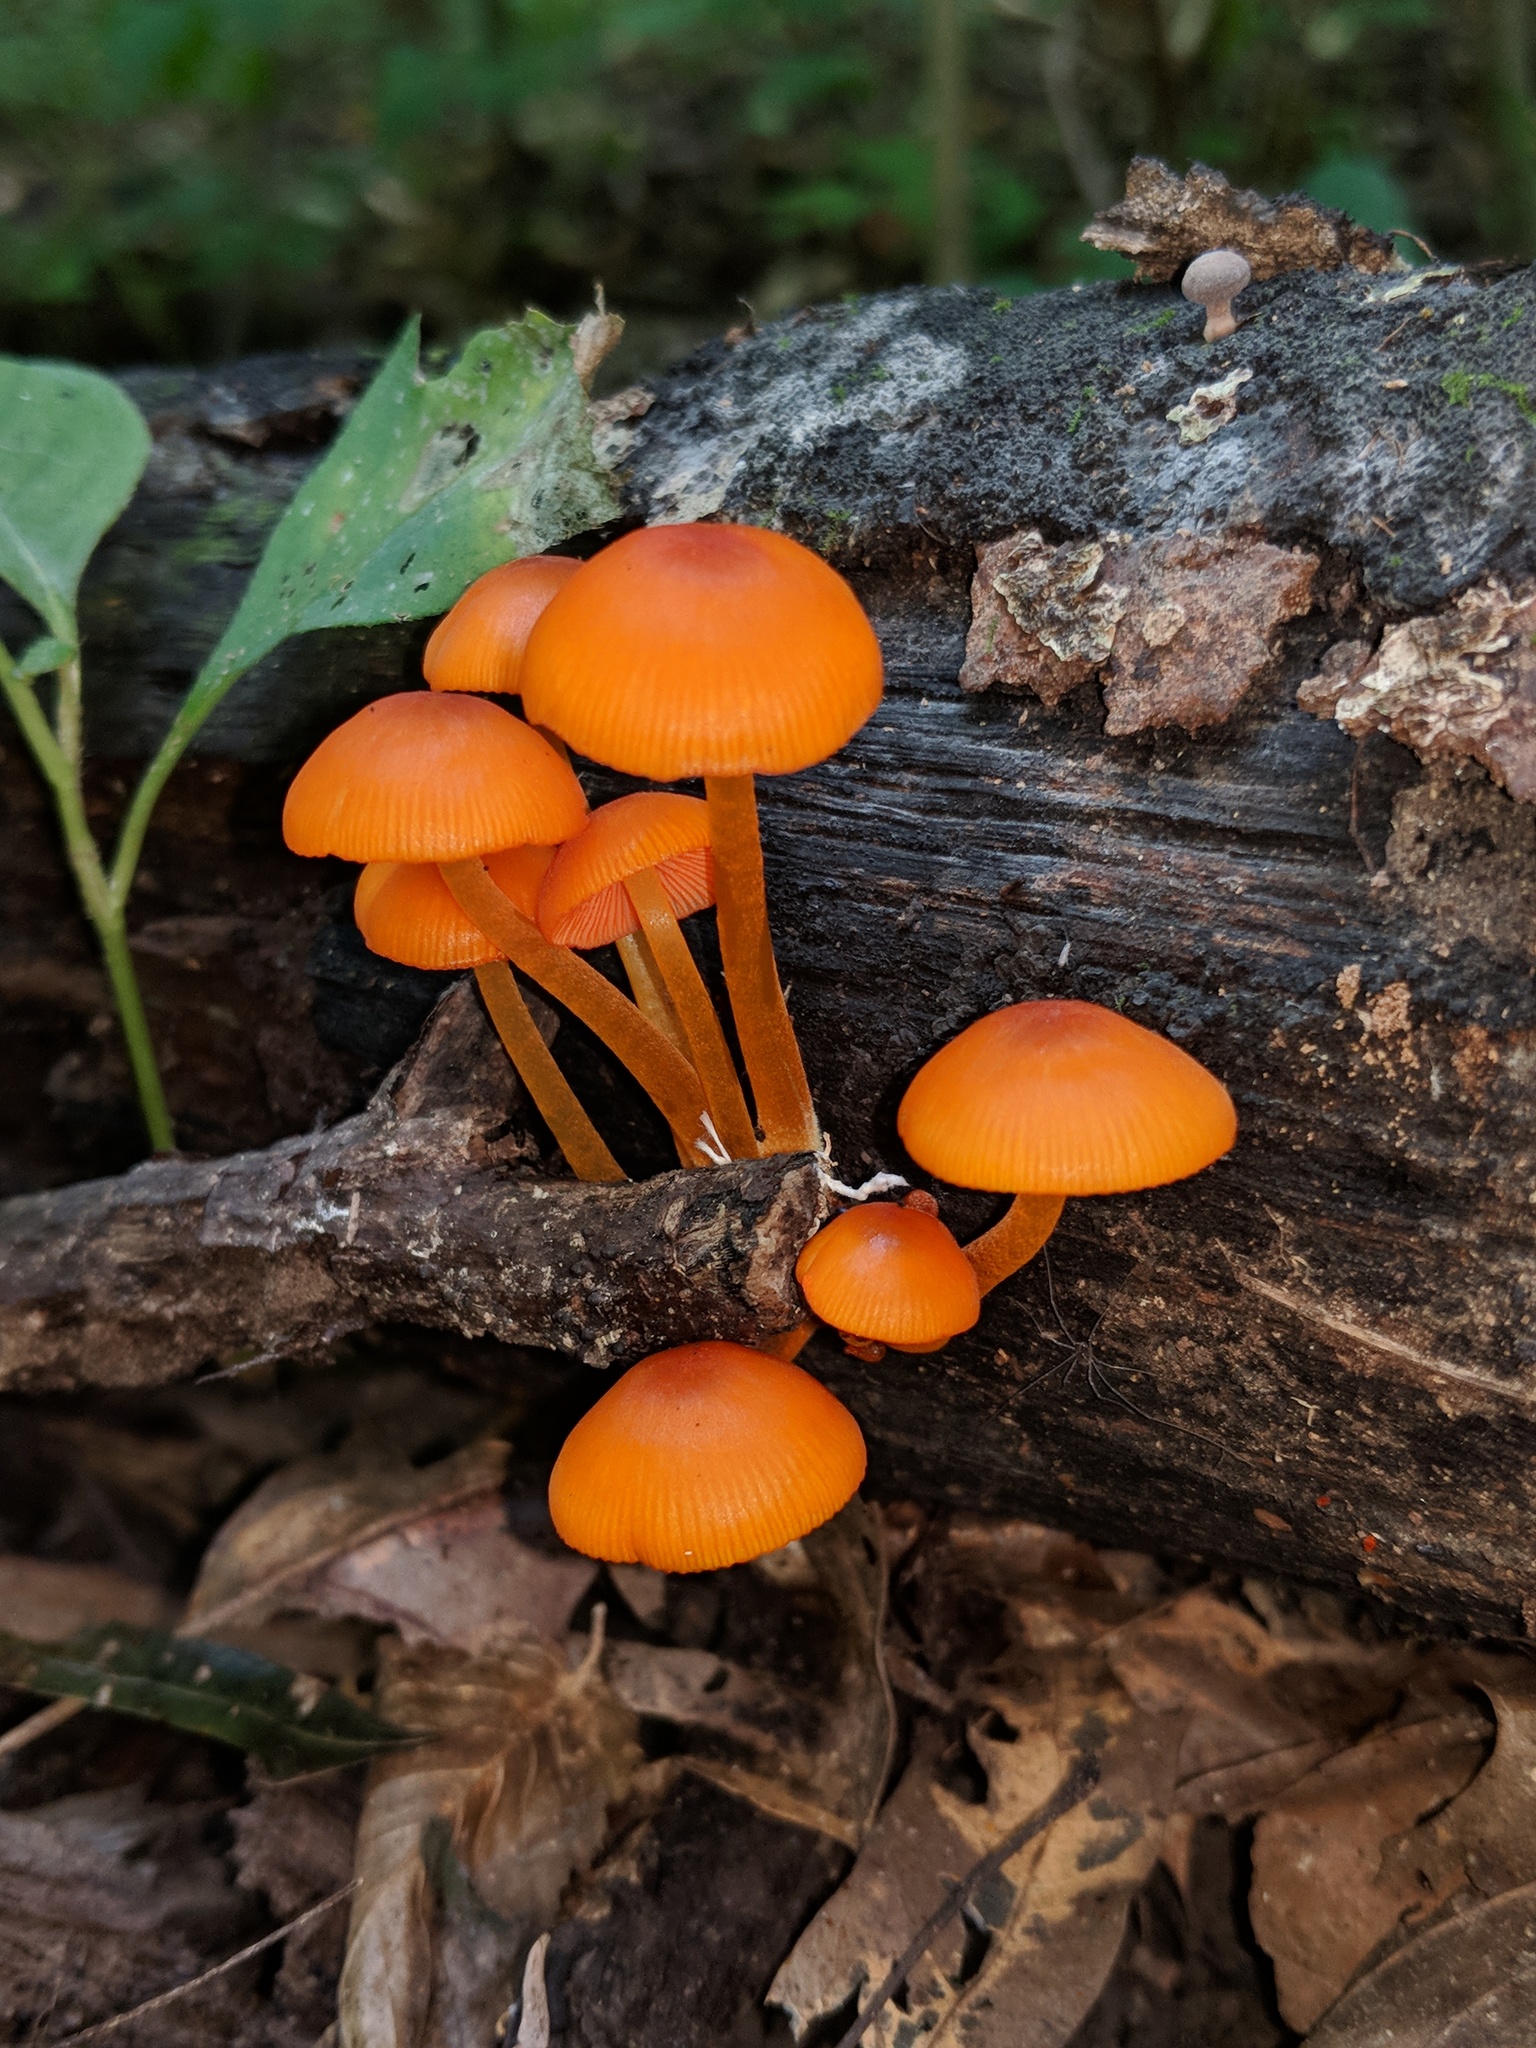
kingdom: Fungi
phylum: Basidiomycota
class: Agaricomycetes
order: Agaricales
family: Mycenaceae
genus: Mycena
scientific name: Mycena leaiana
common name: Orange mycena
